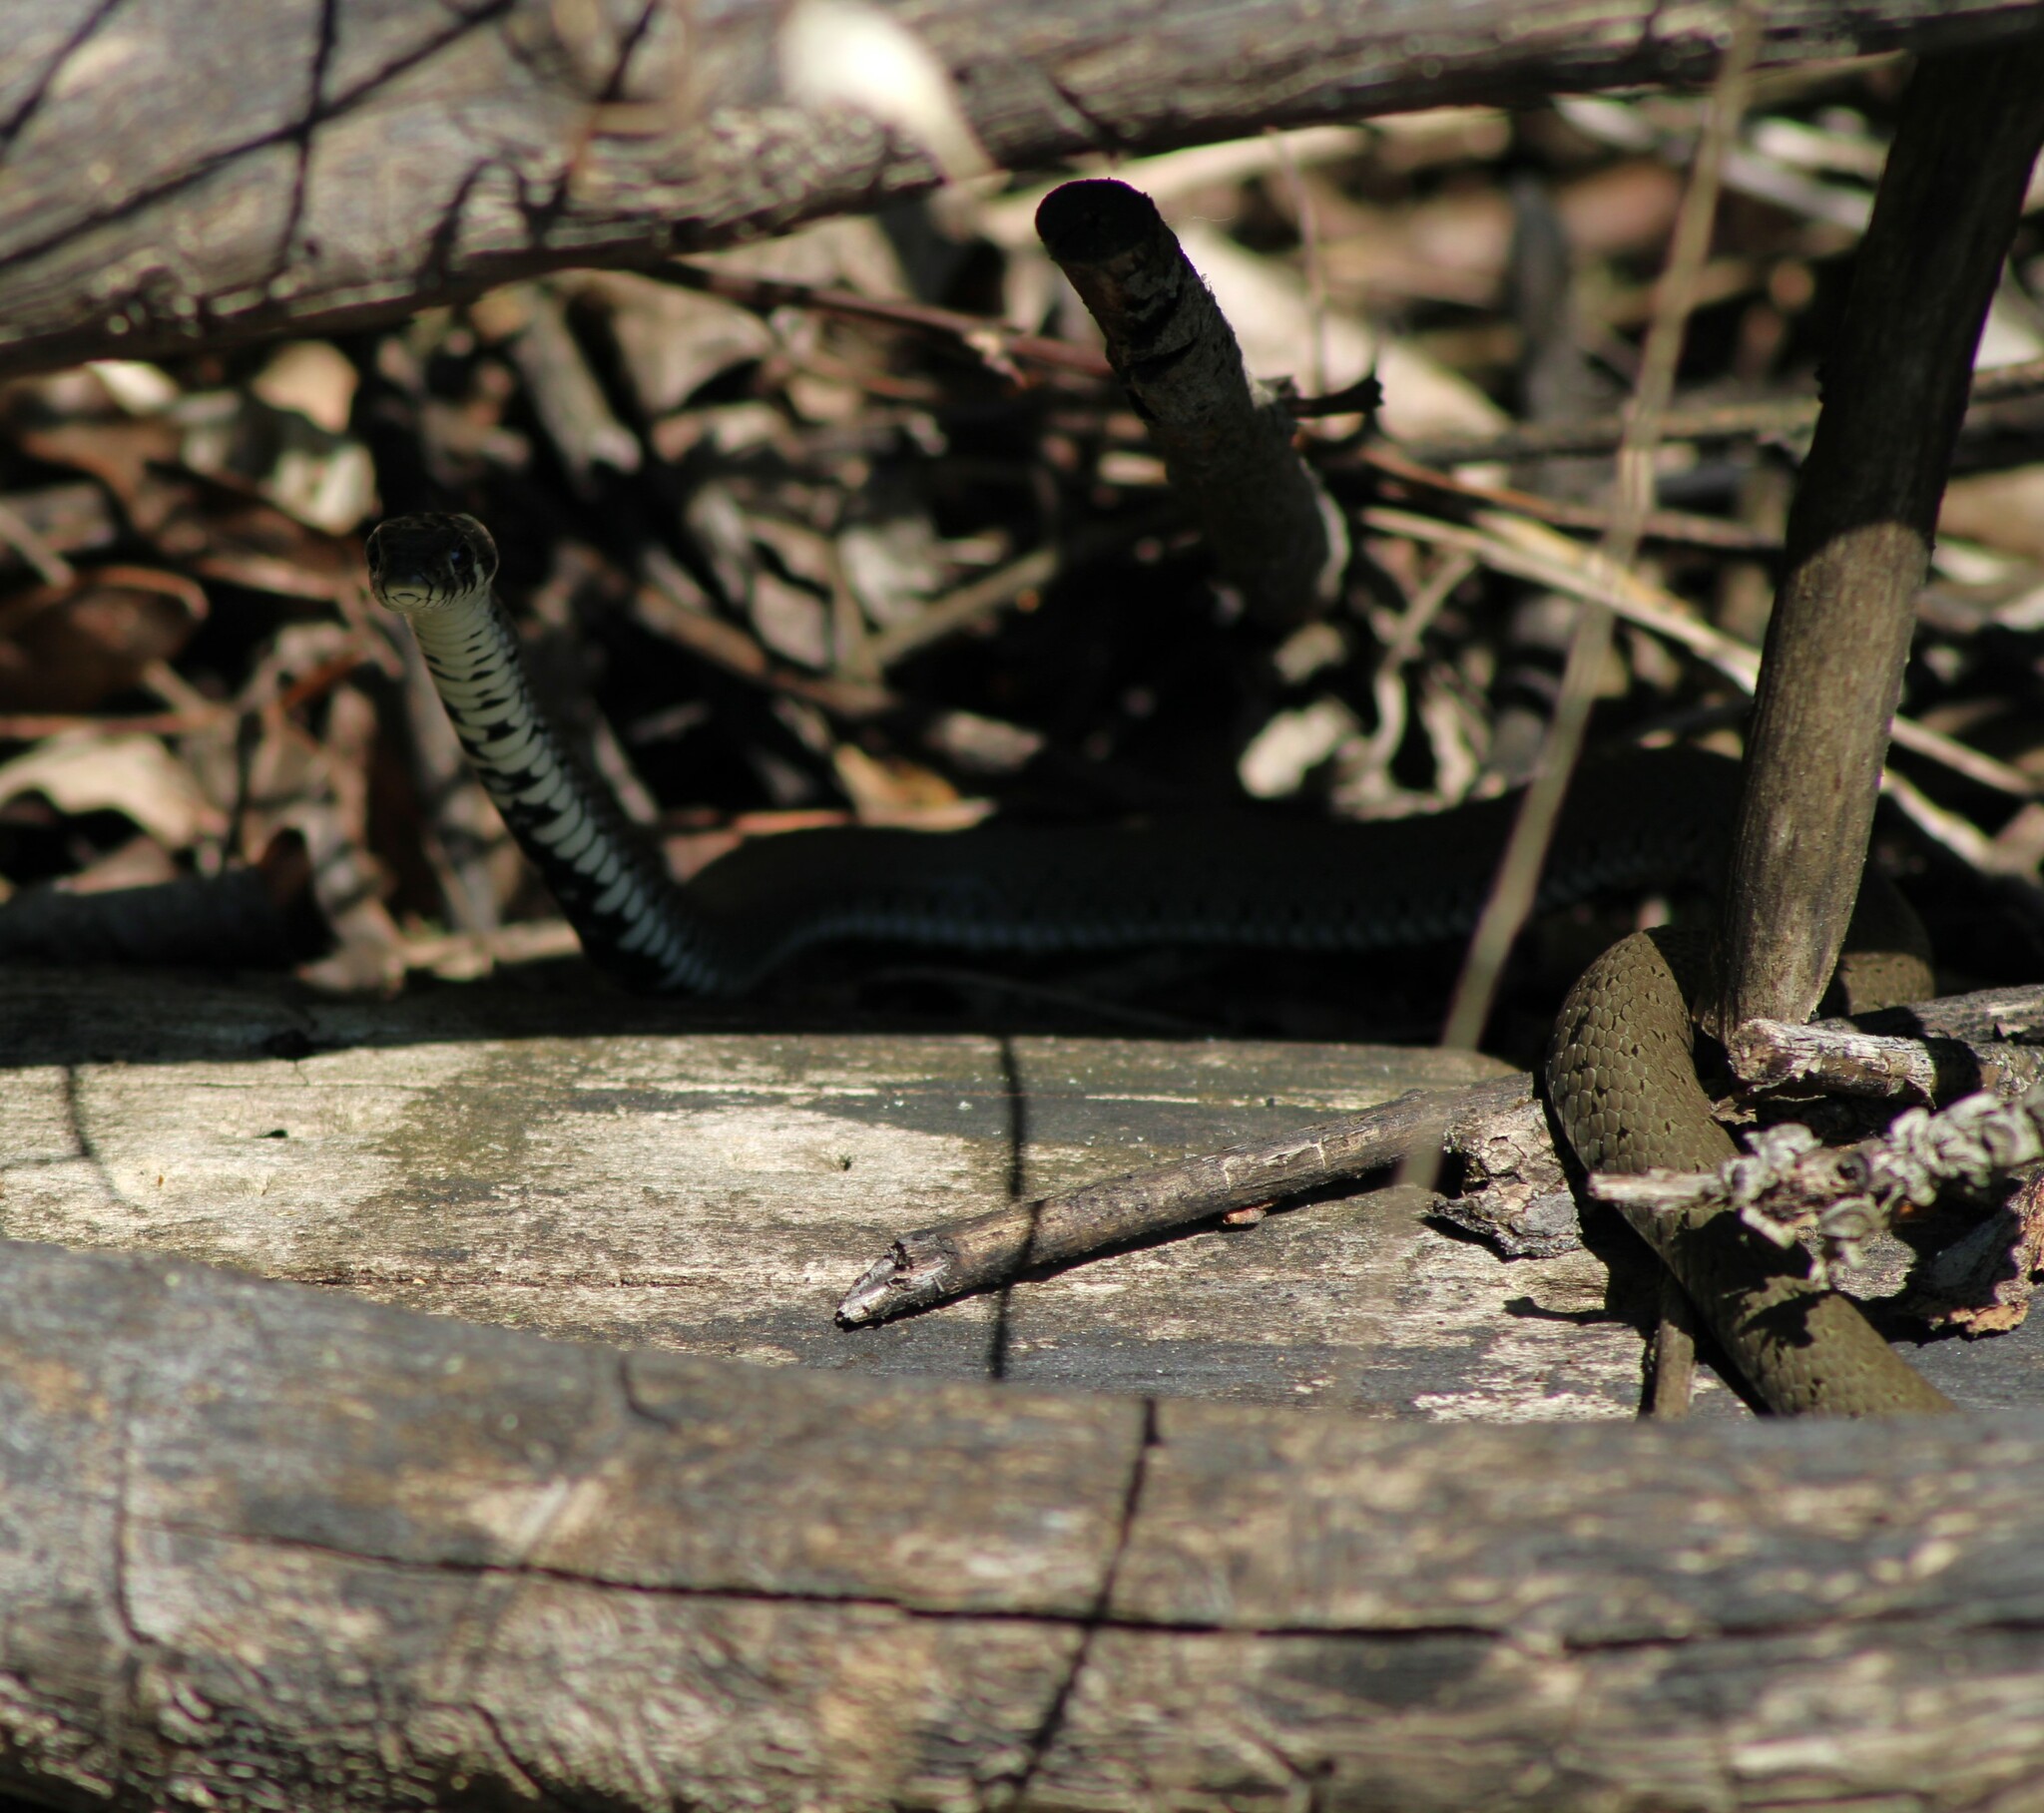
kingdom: Animalia
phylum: Chordata
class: Squamata
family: Colubridae
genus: Natrix
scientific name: Natrix natrix
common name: Grass snake
